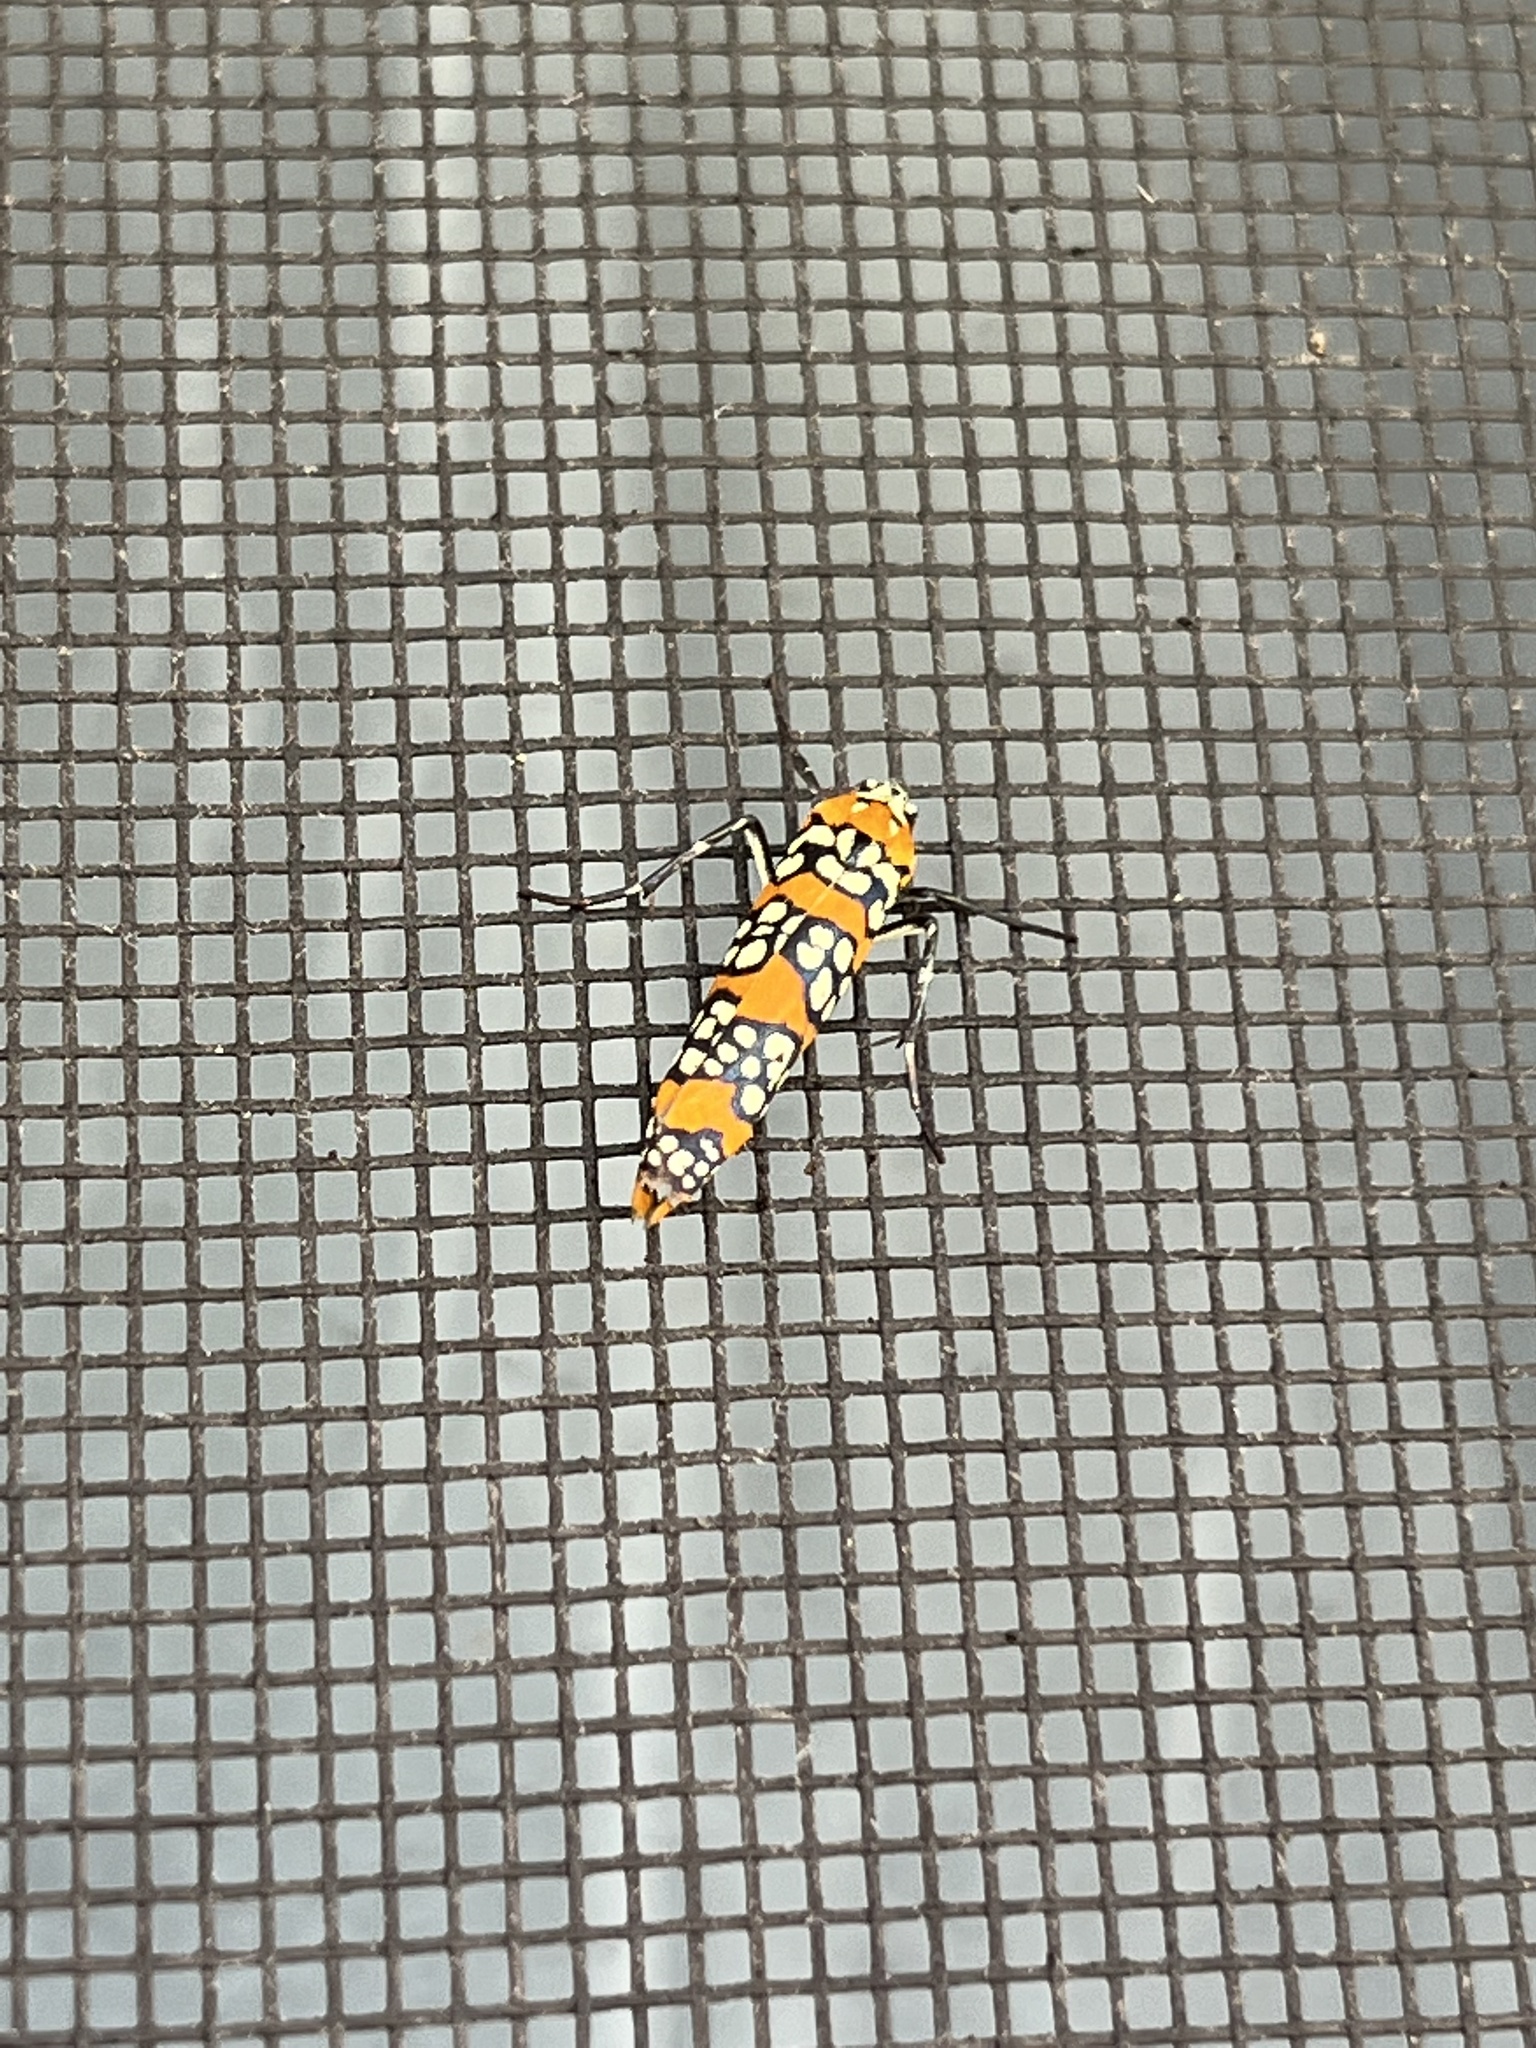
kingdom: Animalia
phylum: Arthropoda
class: Insecta
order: Lepidoptera
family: Attevidae
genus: Atteva
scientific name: Atteva punctella
